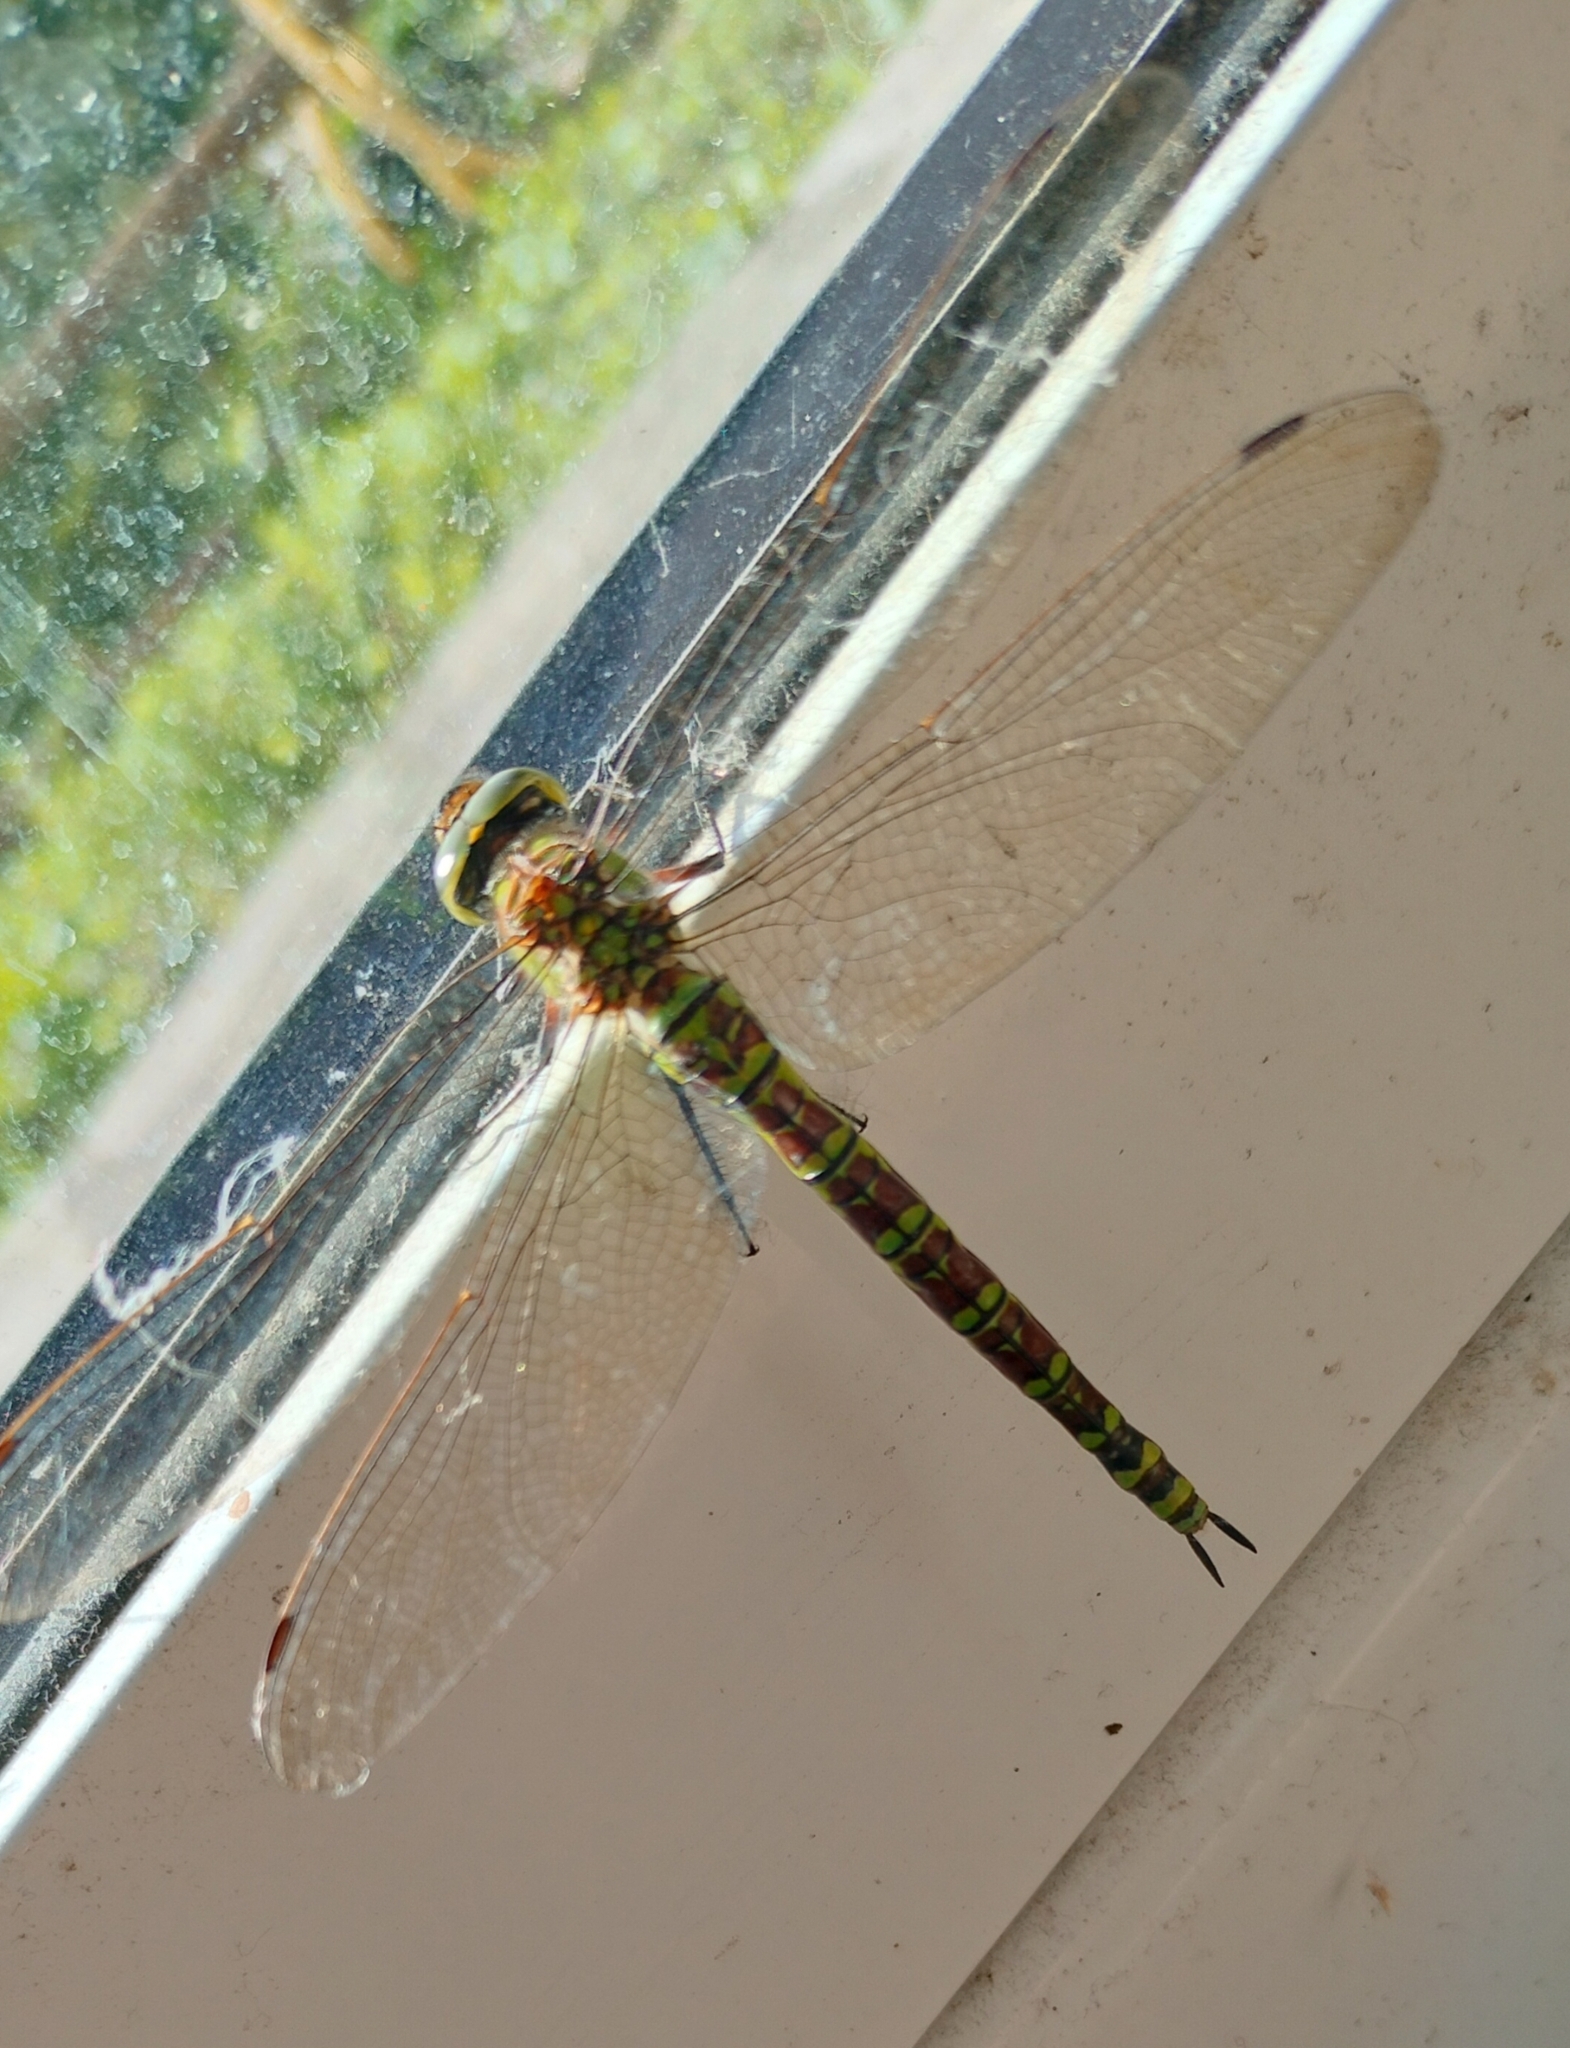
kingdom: Animalia
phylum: Arthropoda
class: Insecta
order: Odonata
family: Aeshnidae
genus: Aeshna
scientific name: Aeshna cyanea
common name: Southern hawker
